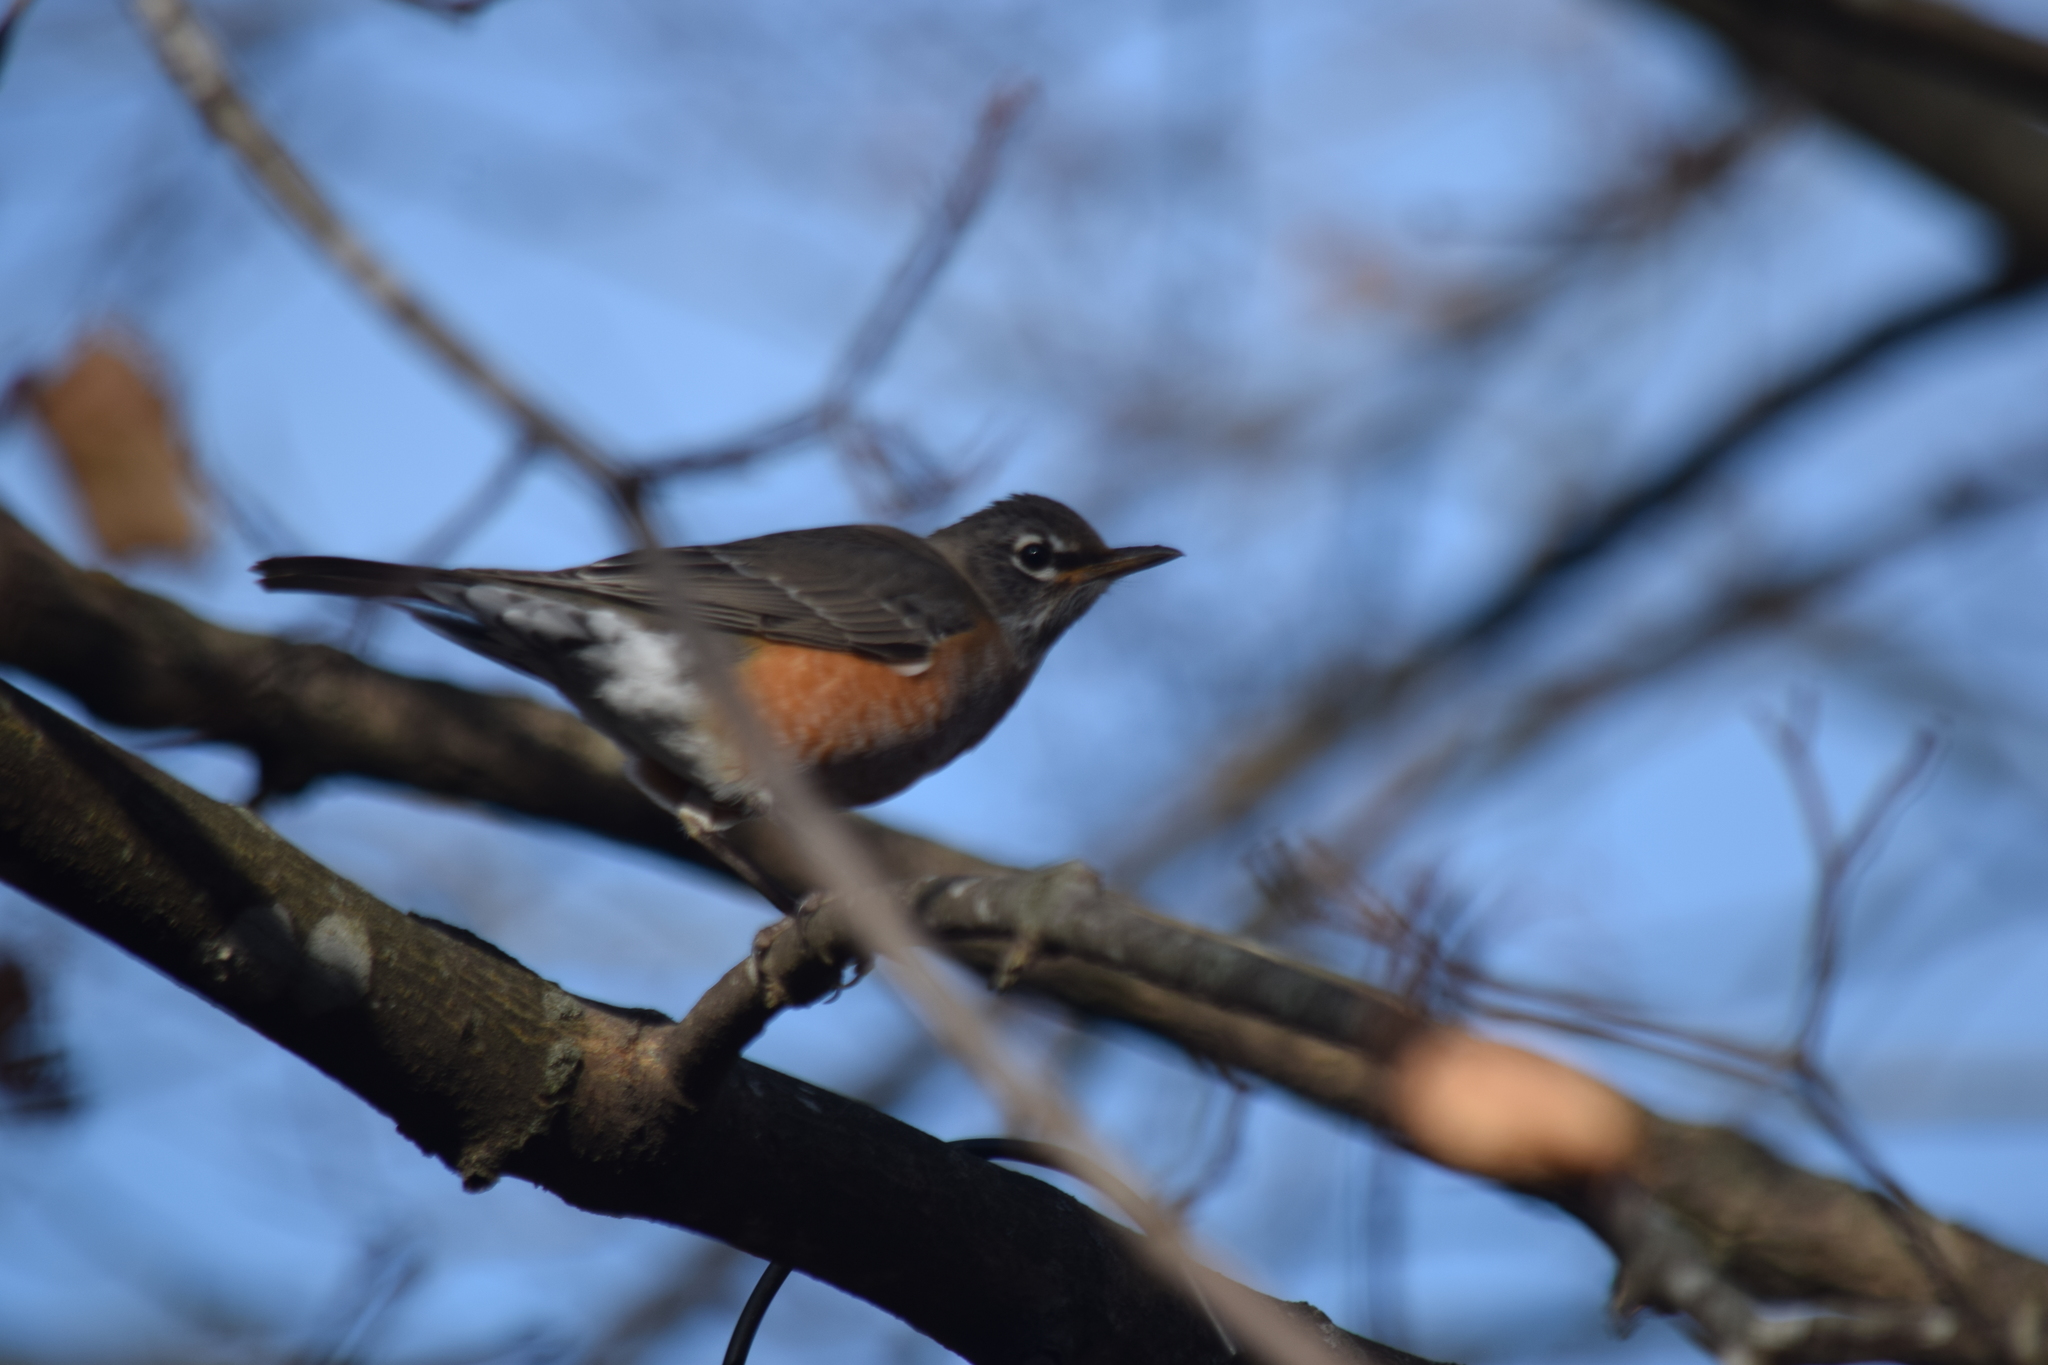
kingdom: Animalia
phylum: Chordata
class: Aves
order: Passeriformes
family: Turdidae
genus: Turdus
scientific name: Turdus migratorius
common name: American robin
